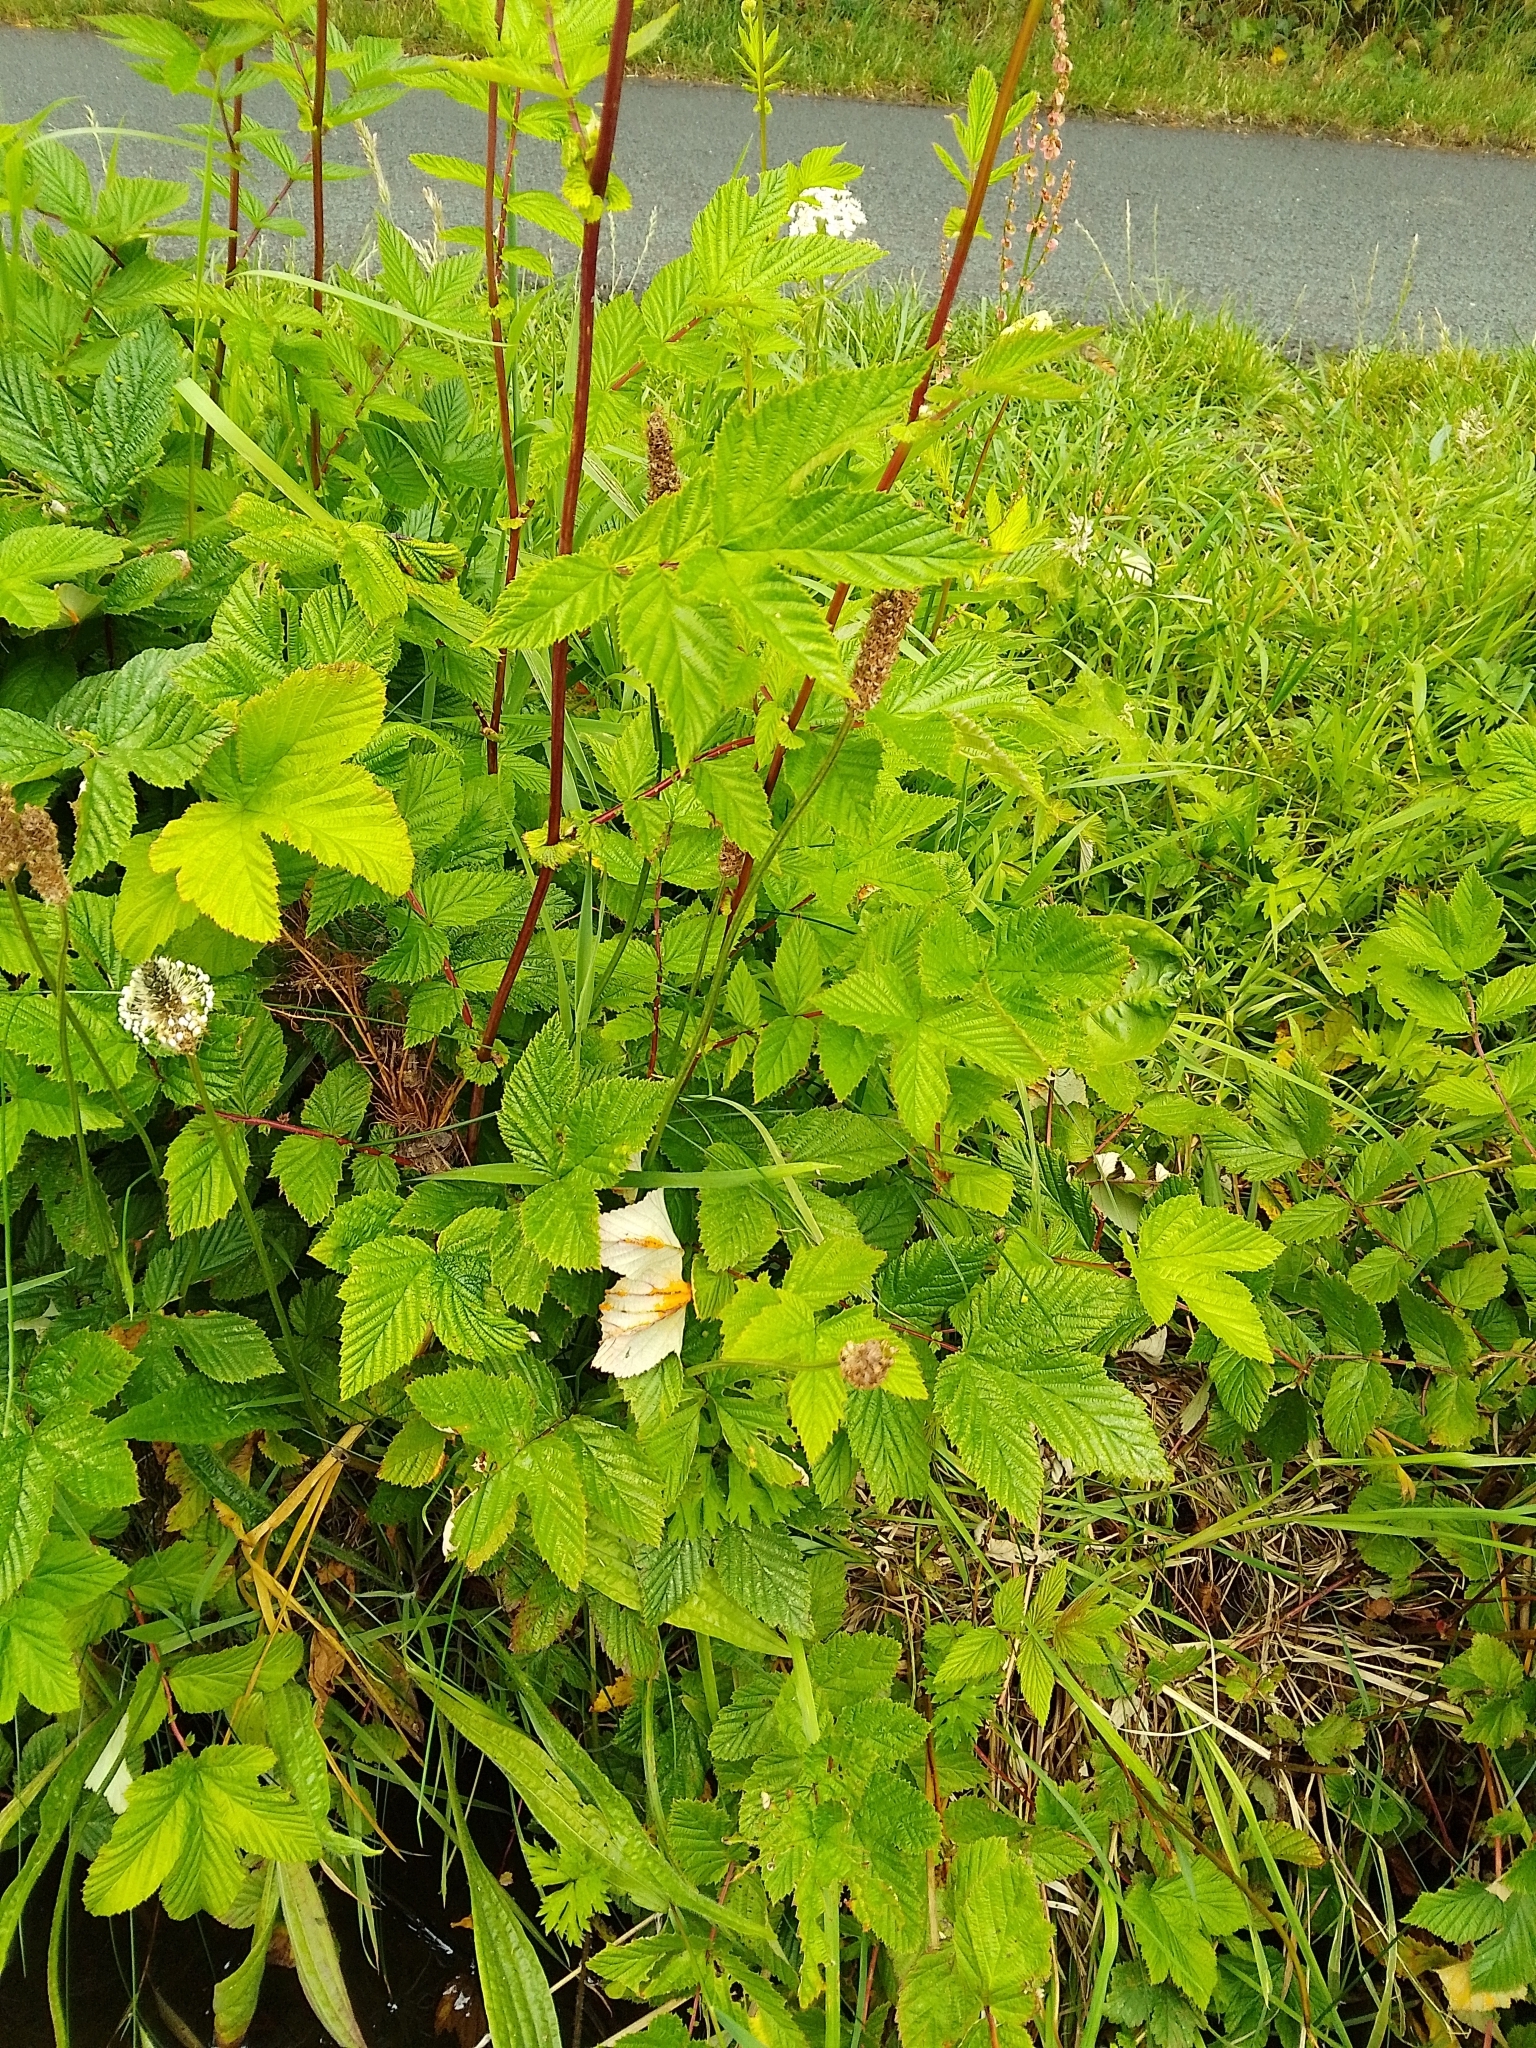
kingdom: Fungi
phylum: Basidiomycota
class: Pucciniomycetes
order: Pucciniales
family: Raveneliaceae
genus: Triphragmium
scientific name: Triphragmium ulmariae
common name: Meadowsweet rust
